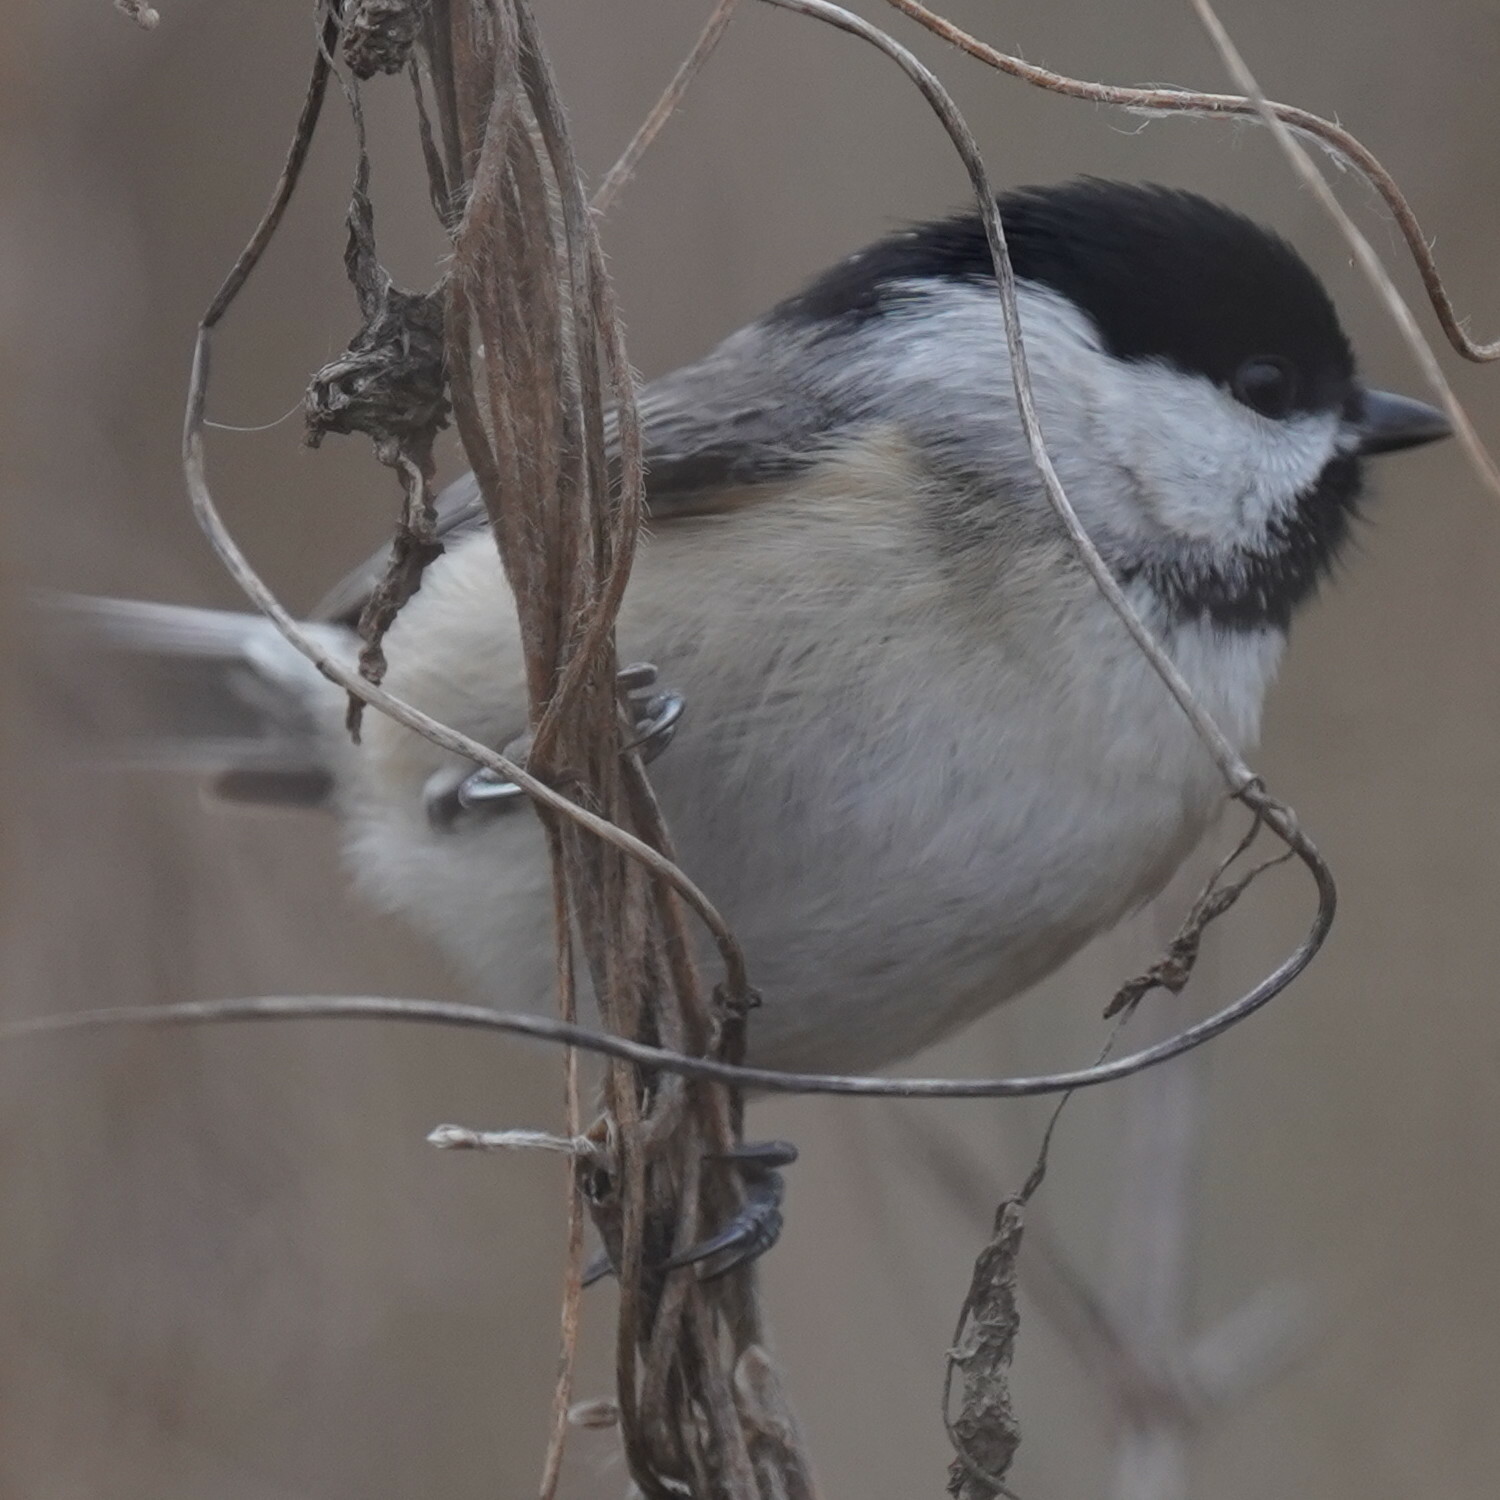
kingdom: Animalia
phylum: Chordata
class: Aves
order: Passeriformes
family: Paridae
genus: Poecile
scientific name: Poecile carolinensis
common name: Carolina chickadee
